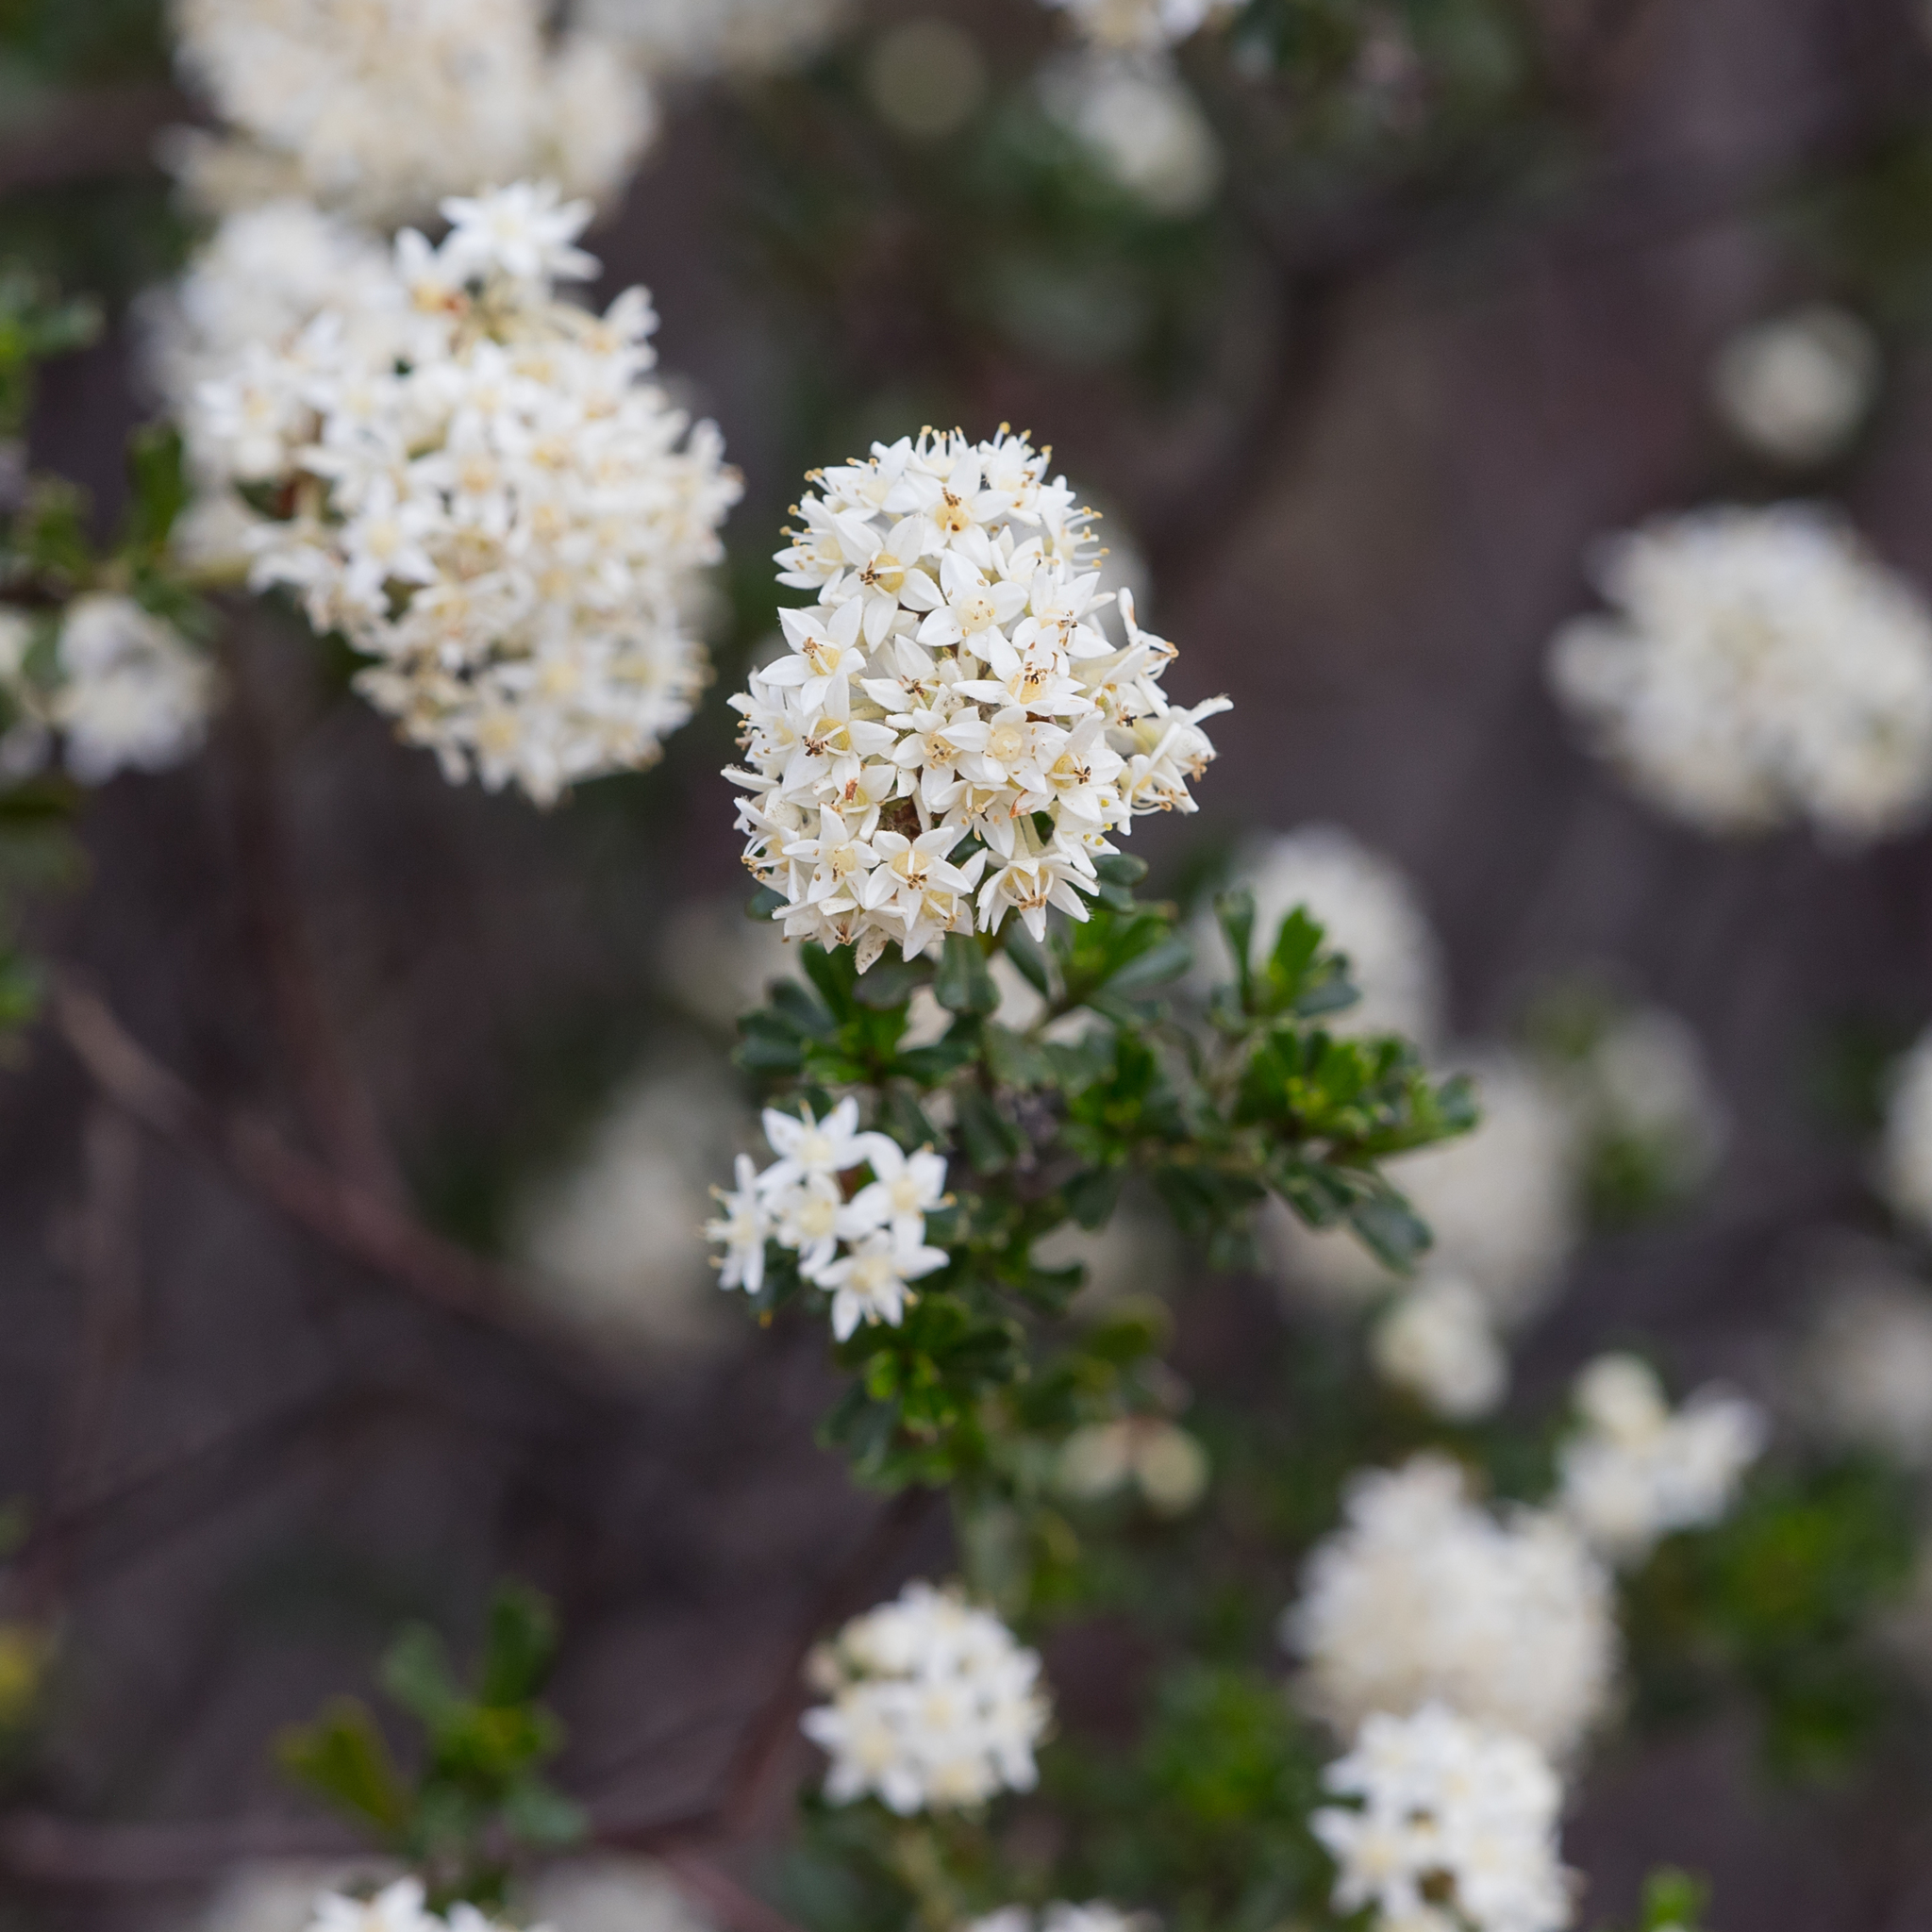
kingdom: Plantae
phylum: Tracheophyta
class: Magnoliopsida
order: Rosales
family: Rhamnaceae
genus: Pomaderris
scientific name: Pomaderris obcordata
